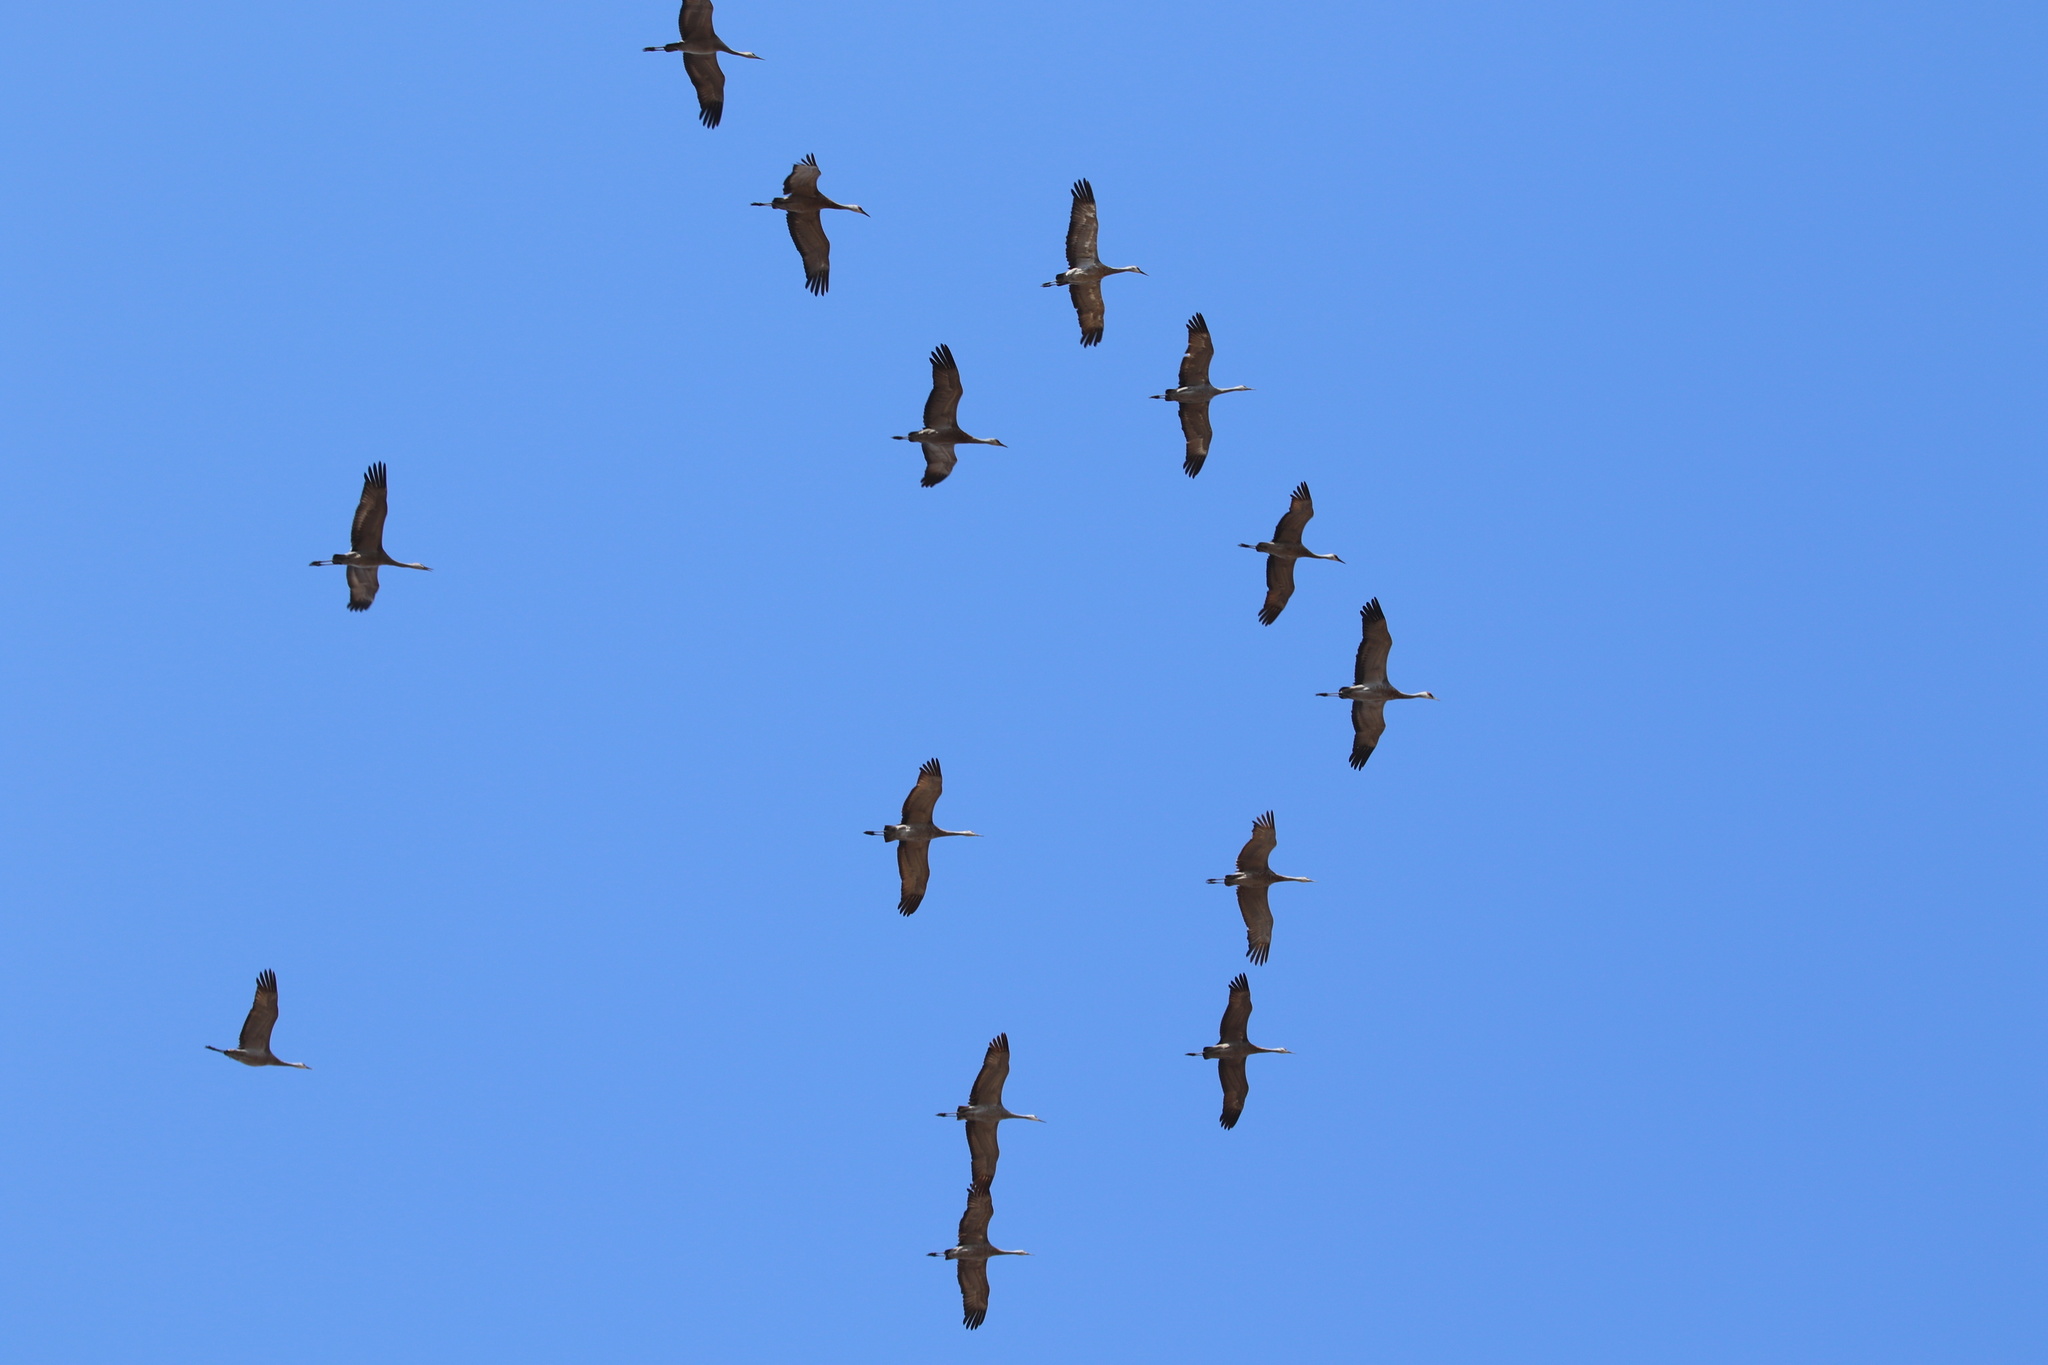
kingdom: Animalia
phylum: Chordata
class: Aves
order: Gruiformes
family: Gruidae
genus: Grus
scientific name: Grus canadensis
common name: Sandhill crane
